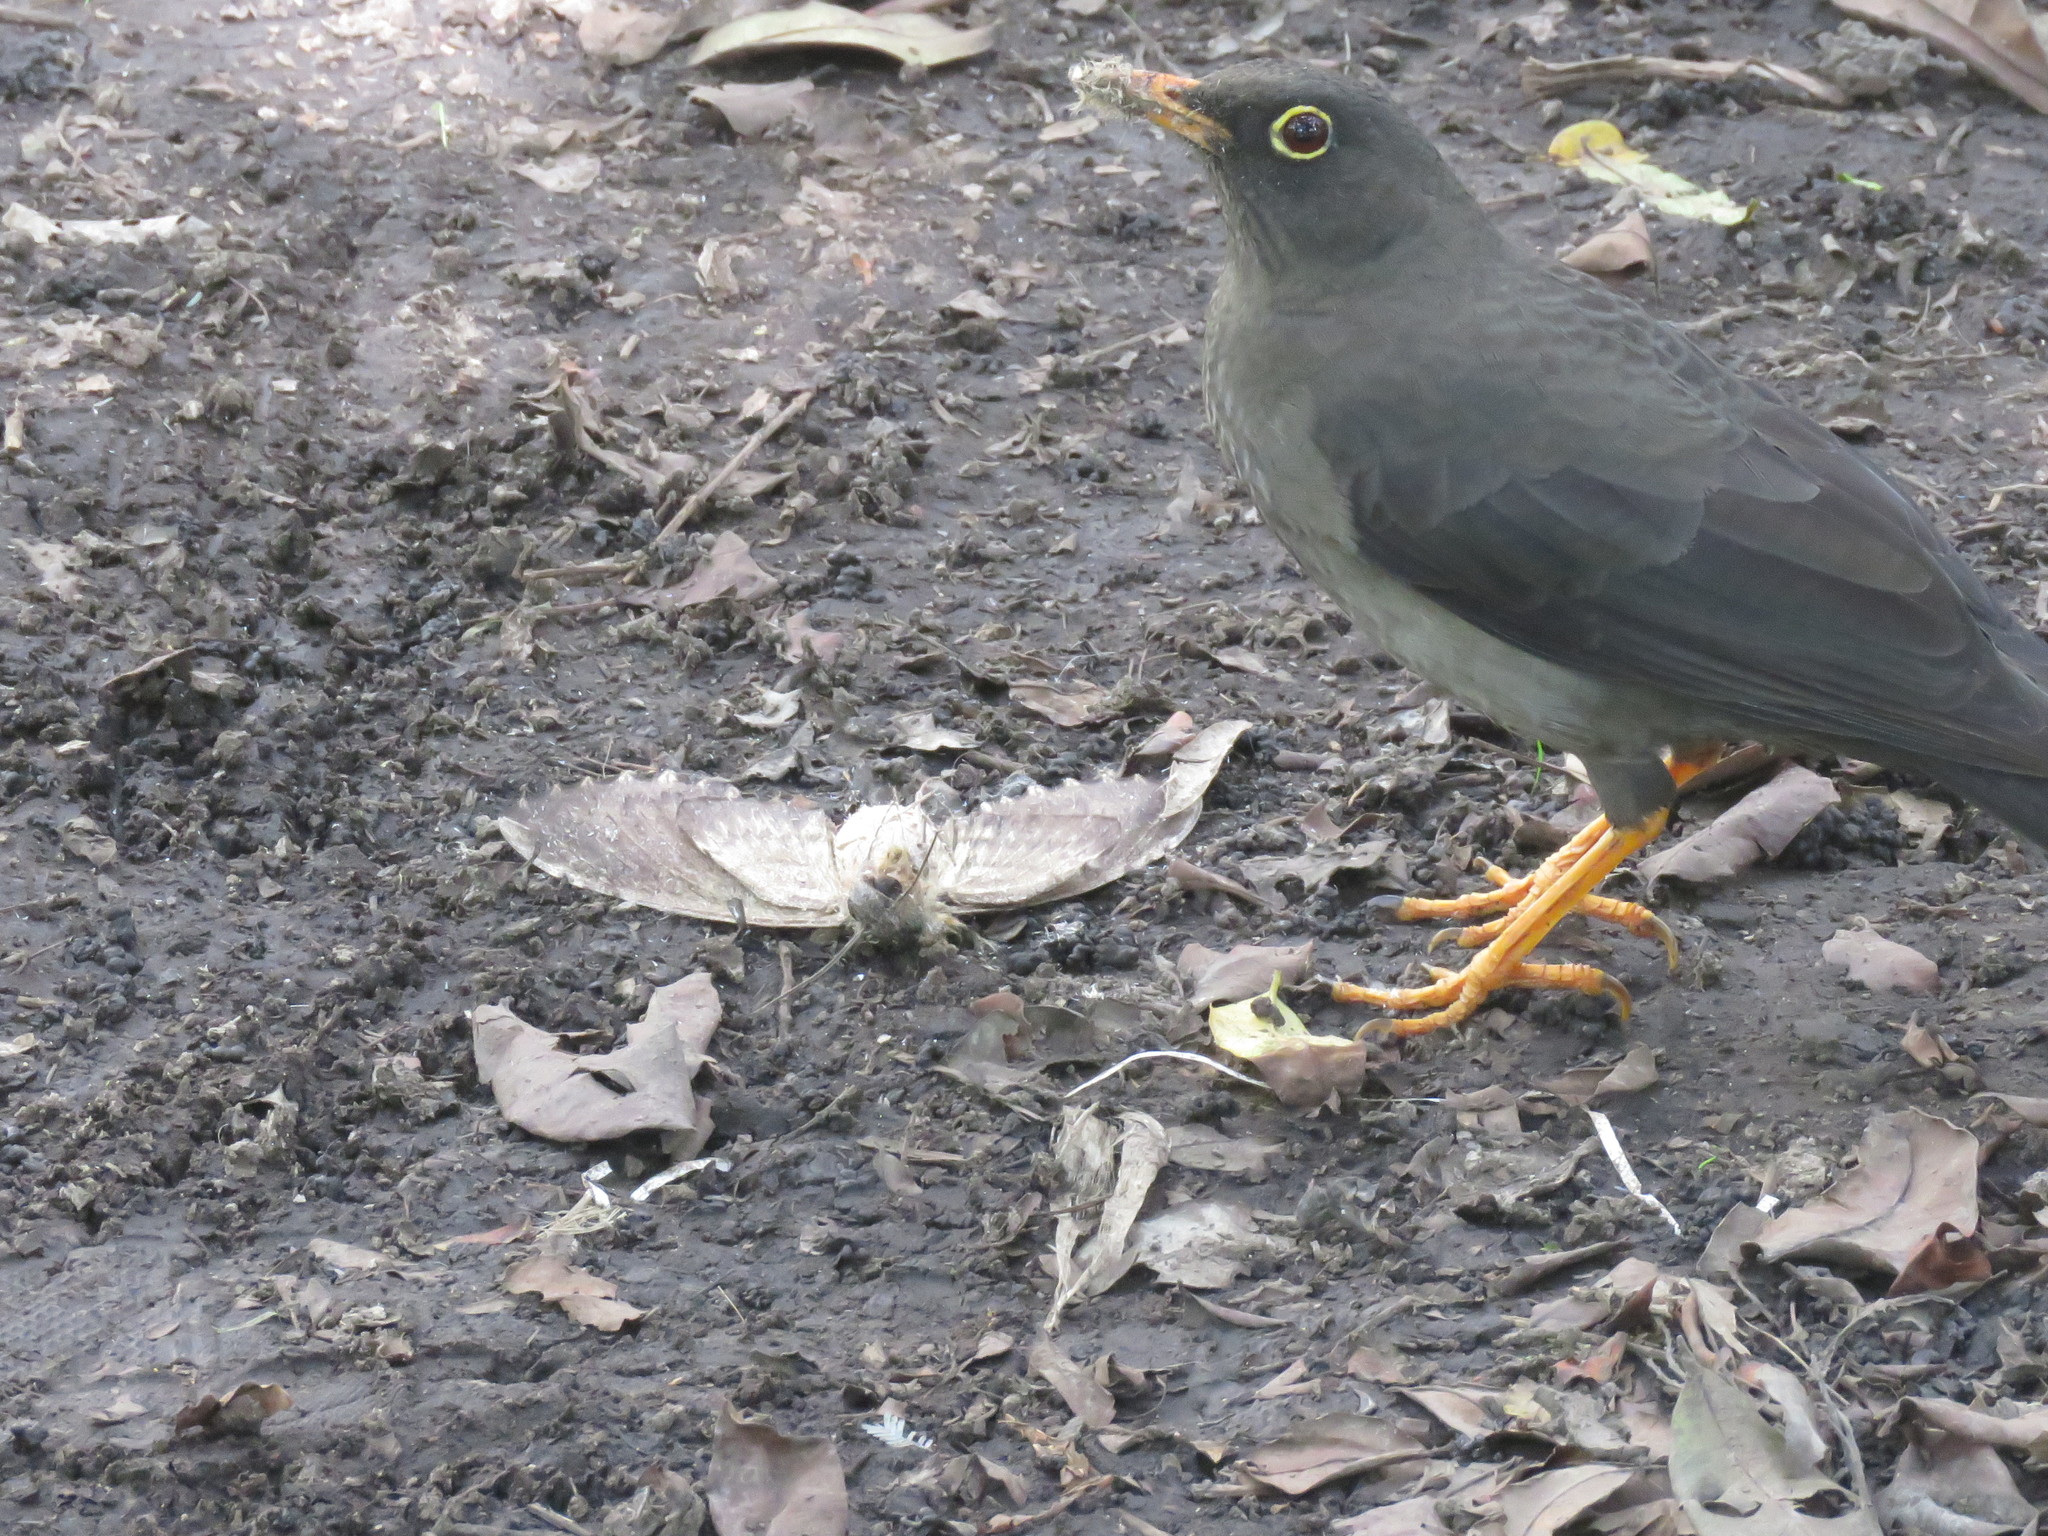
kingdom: Animalia
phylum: Arthropoda
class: Insecta
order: Lepidoptera
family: Sphingidae
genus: Pseudosphinx
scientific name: Pseudosphinx tetrio
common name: Tetrio sphinx
